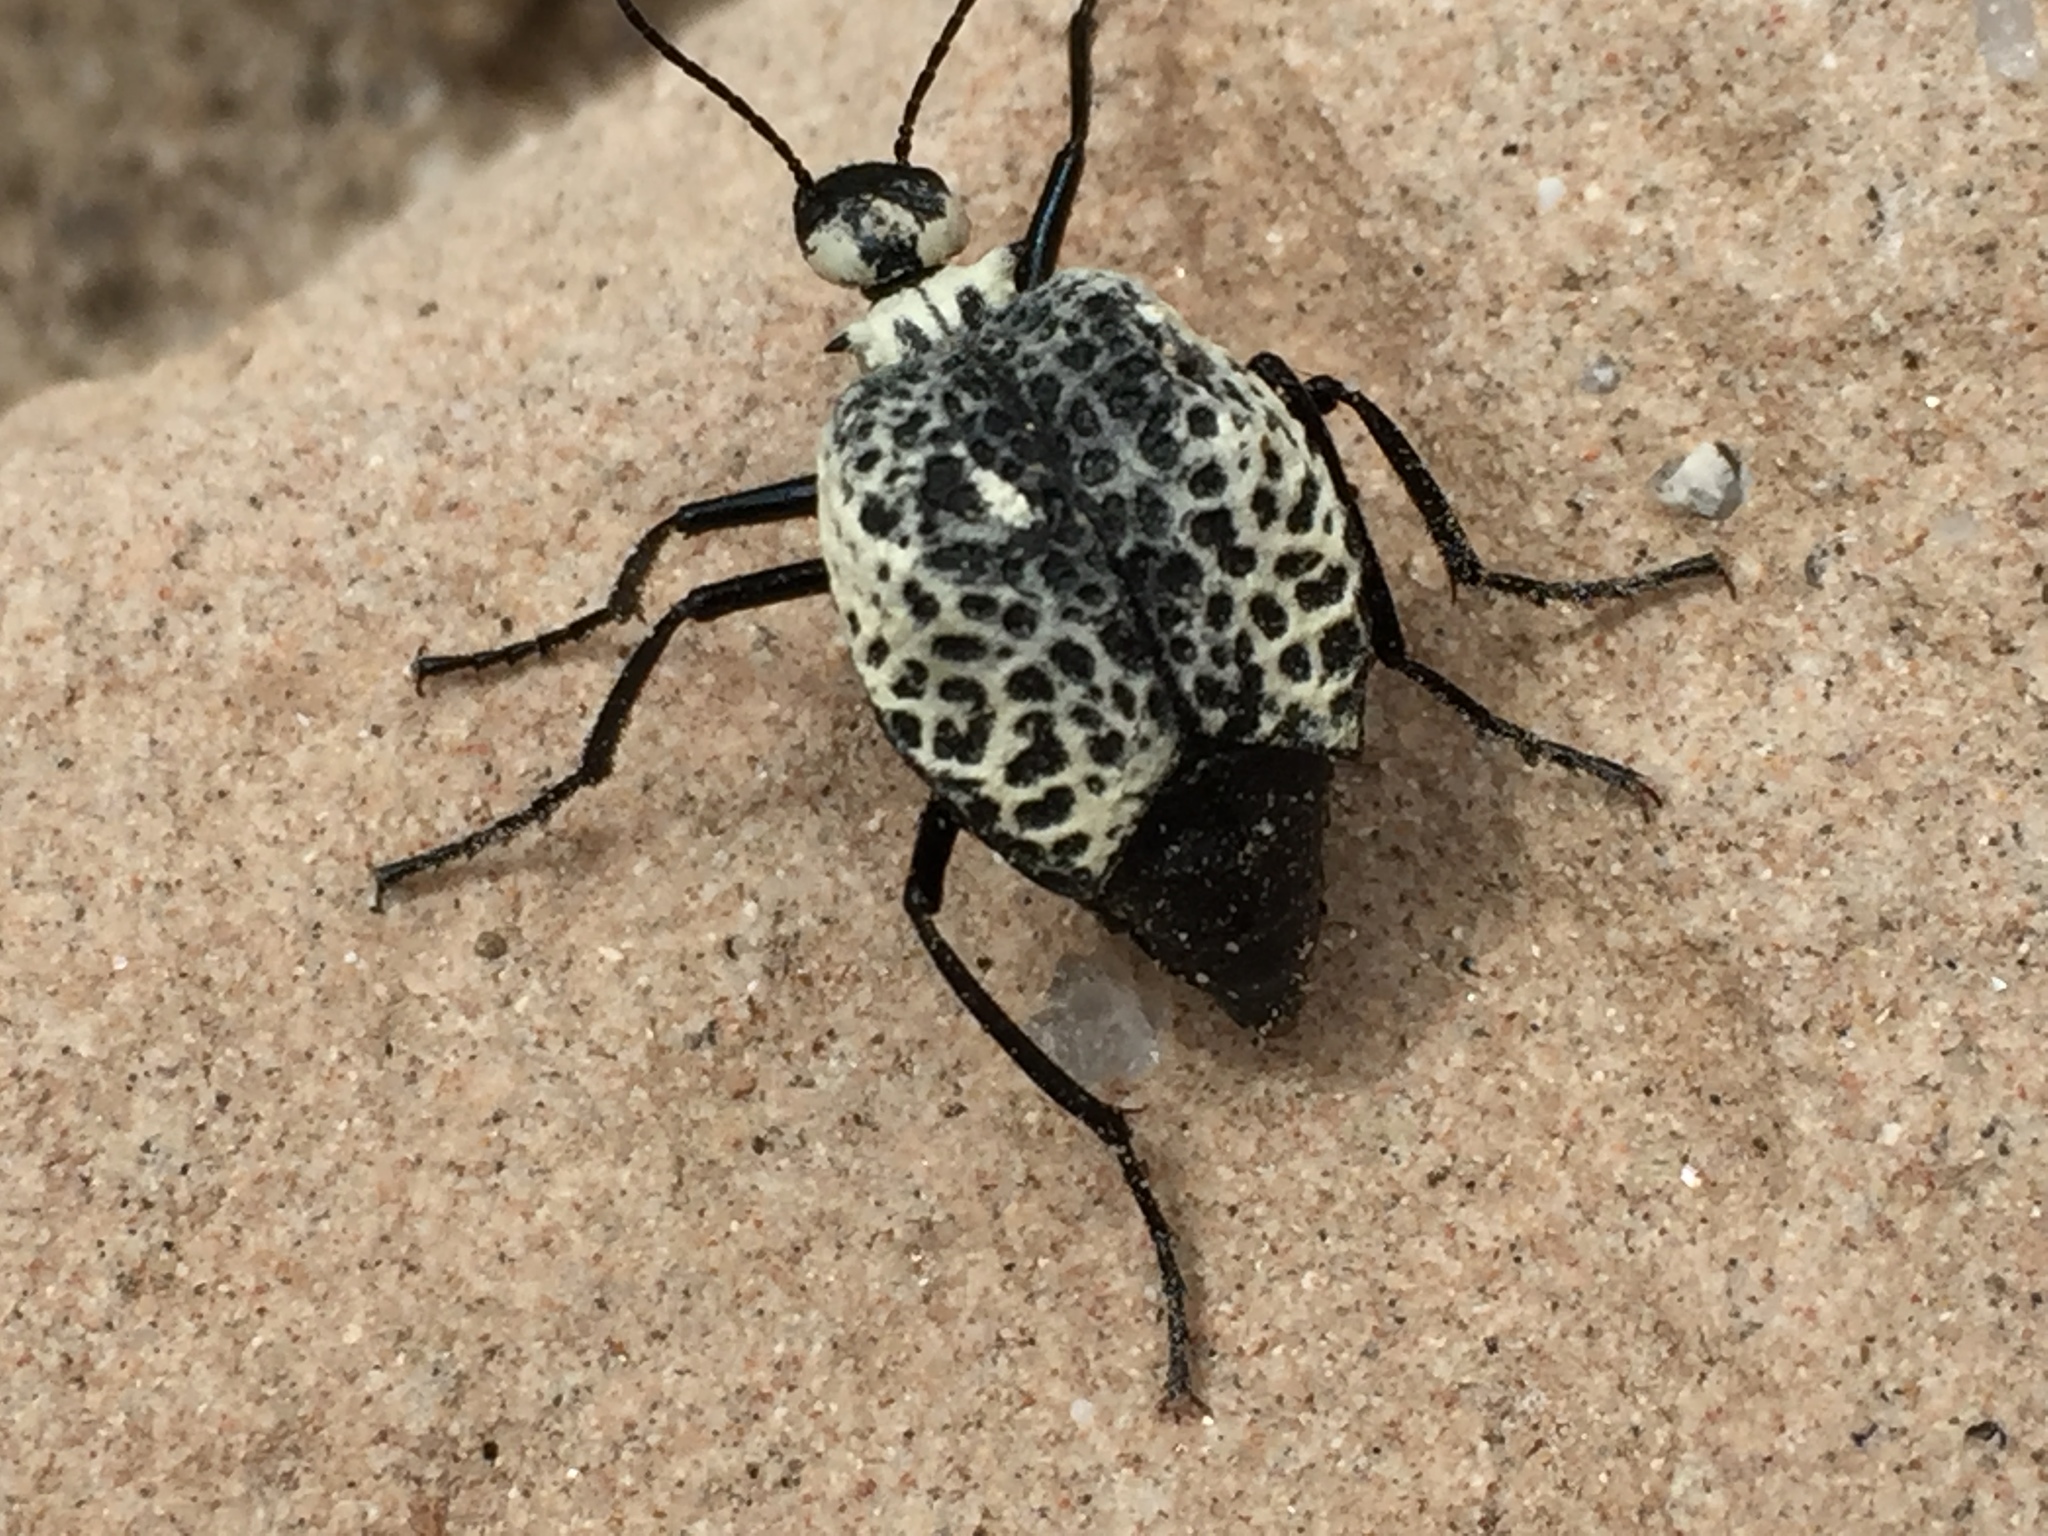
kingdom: Animalia
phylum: Arthropoda
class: Insecta
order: Coleoptera
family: Meloidae
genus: Cysteodemus
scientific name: Cysteodemus armatus
